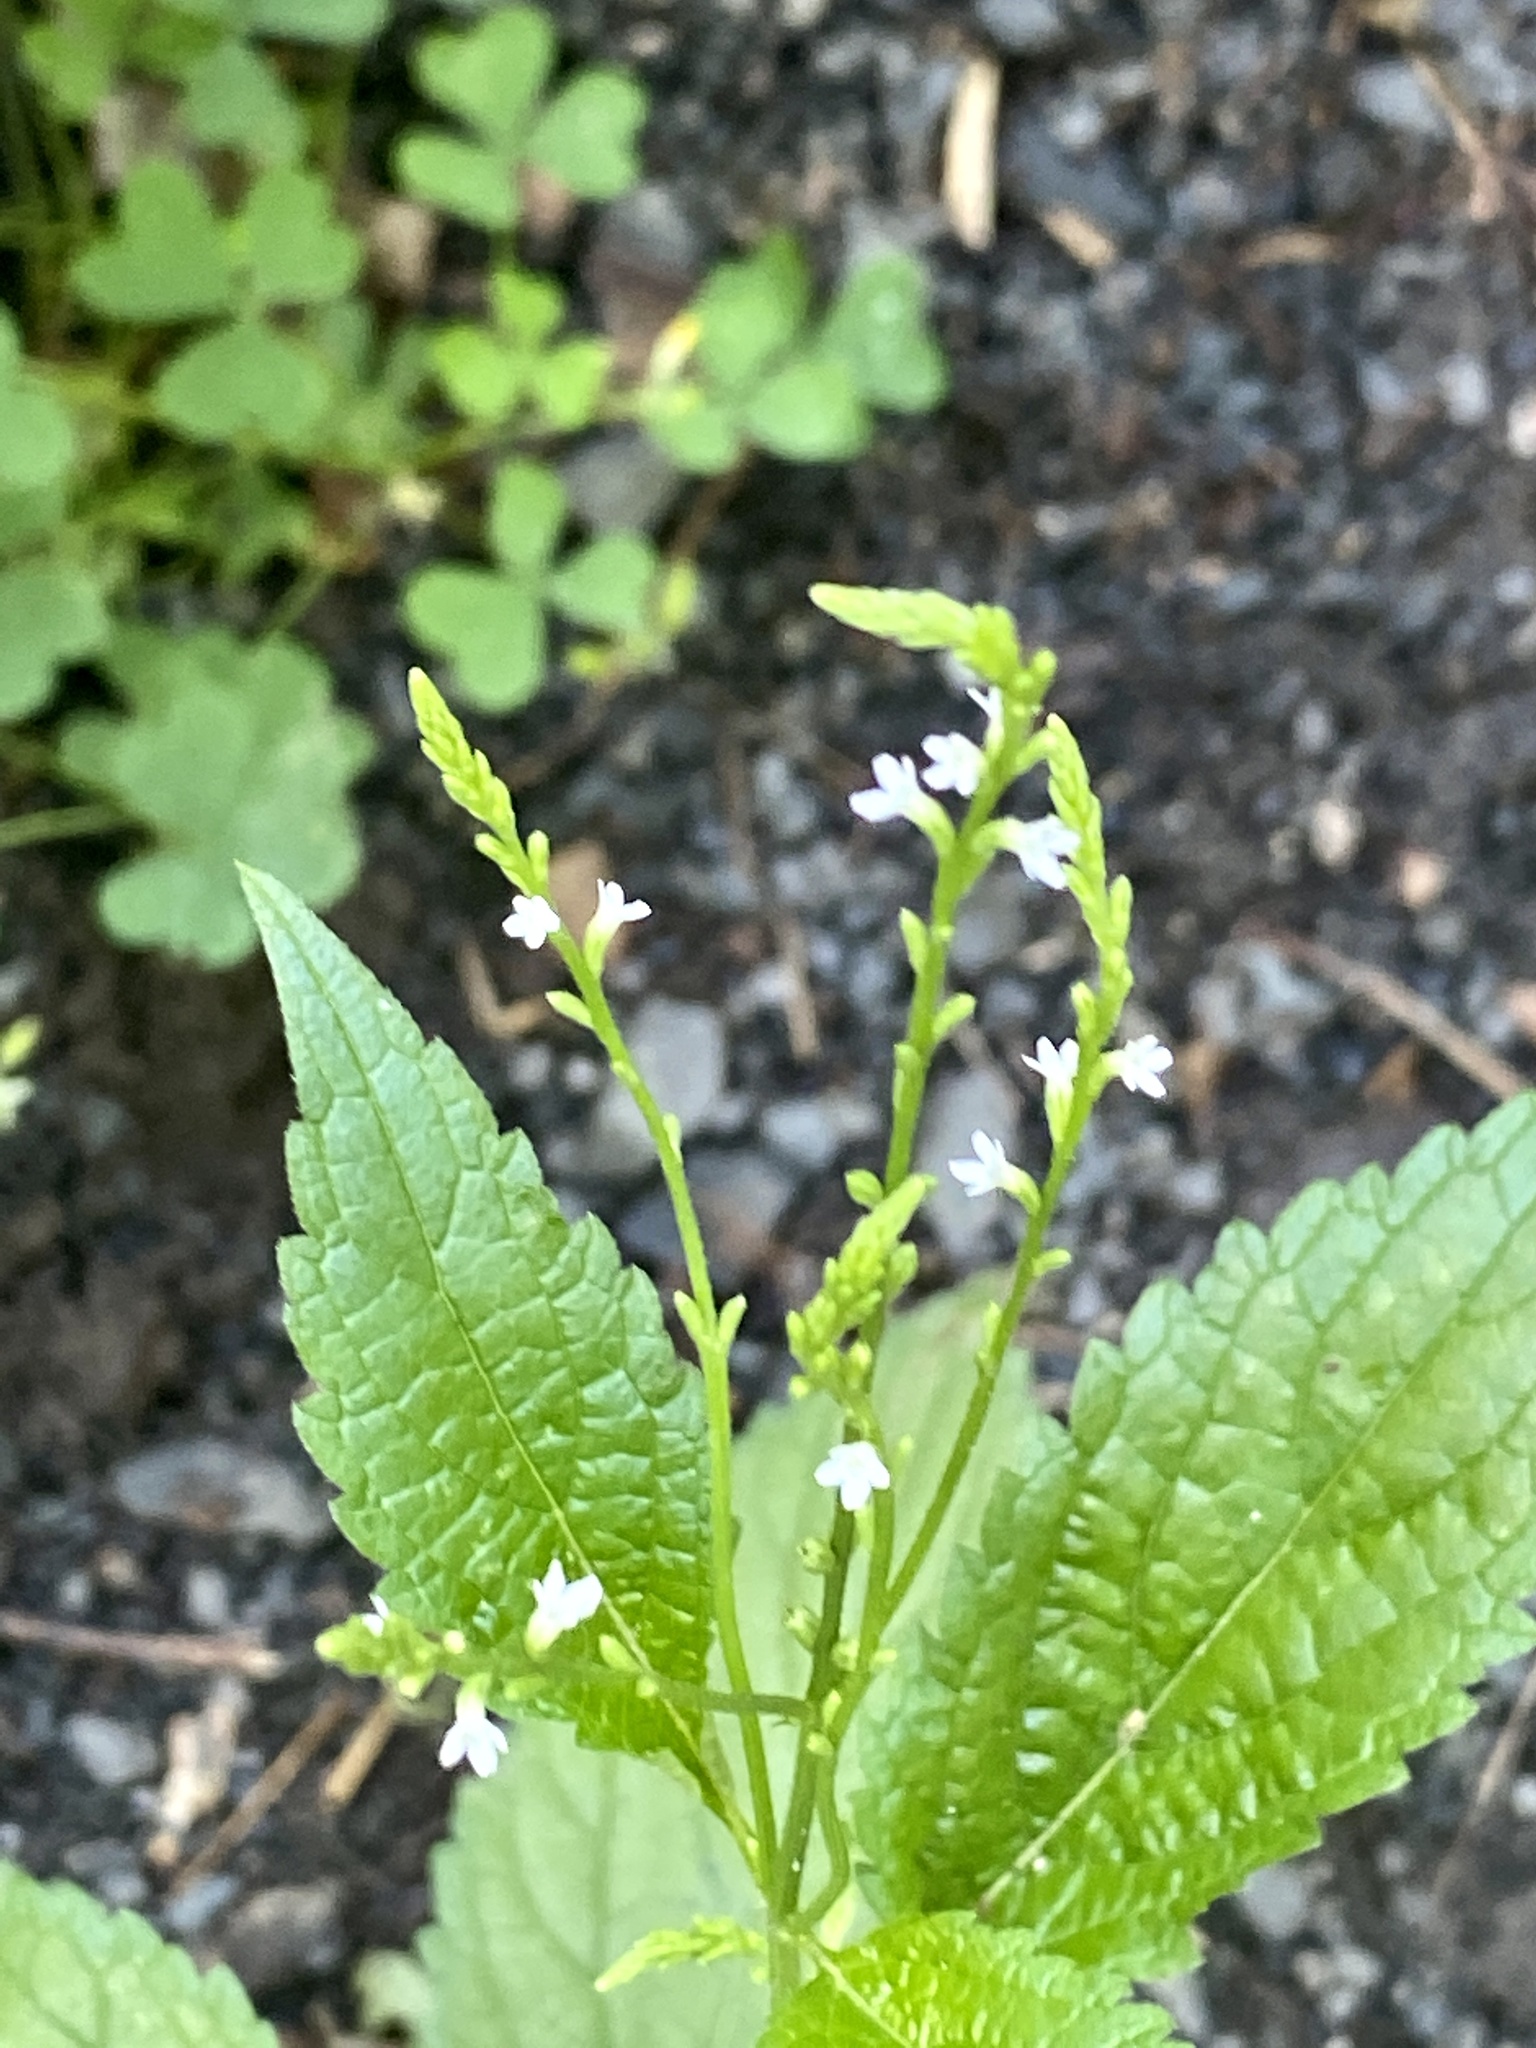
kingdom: Plantae
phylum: Tracheophyta
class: Magnoliopsida
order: Lamiales
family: Verbenaceae
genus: Verbena
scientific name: Verbena urticifolia
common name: Nettle-leaved vervain
